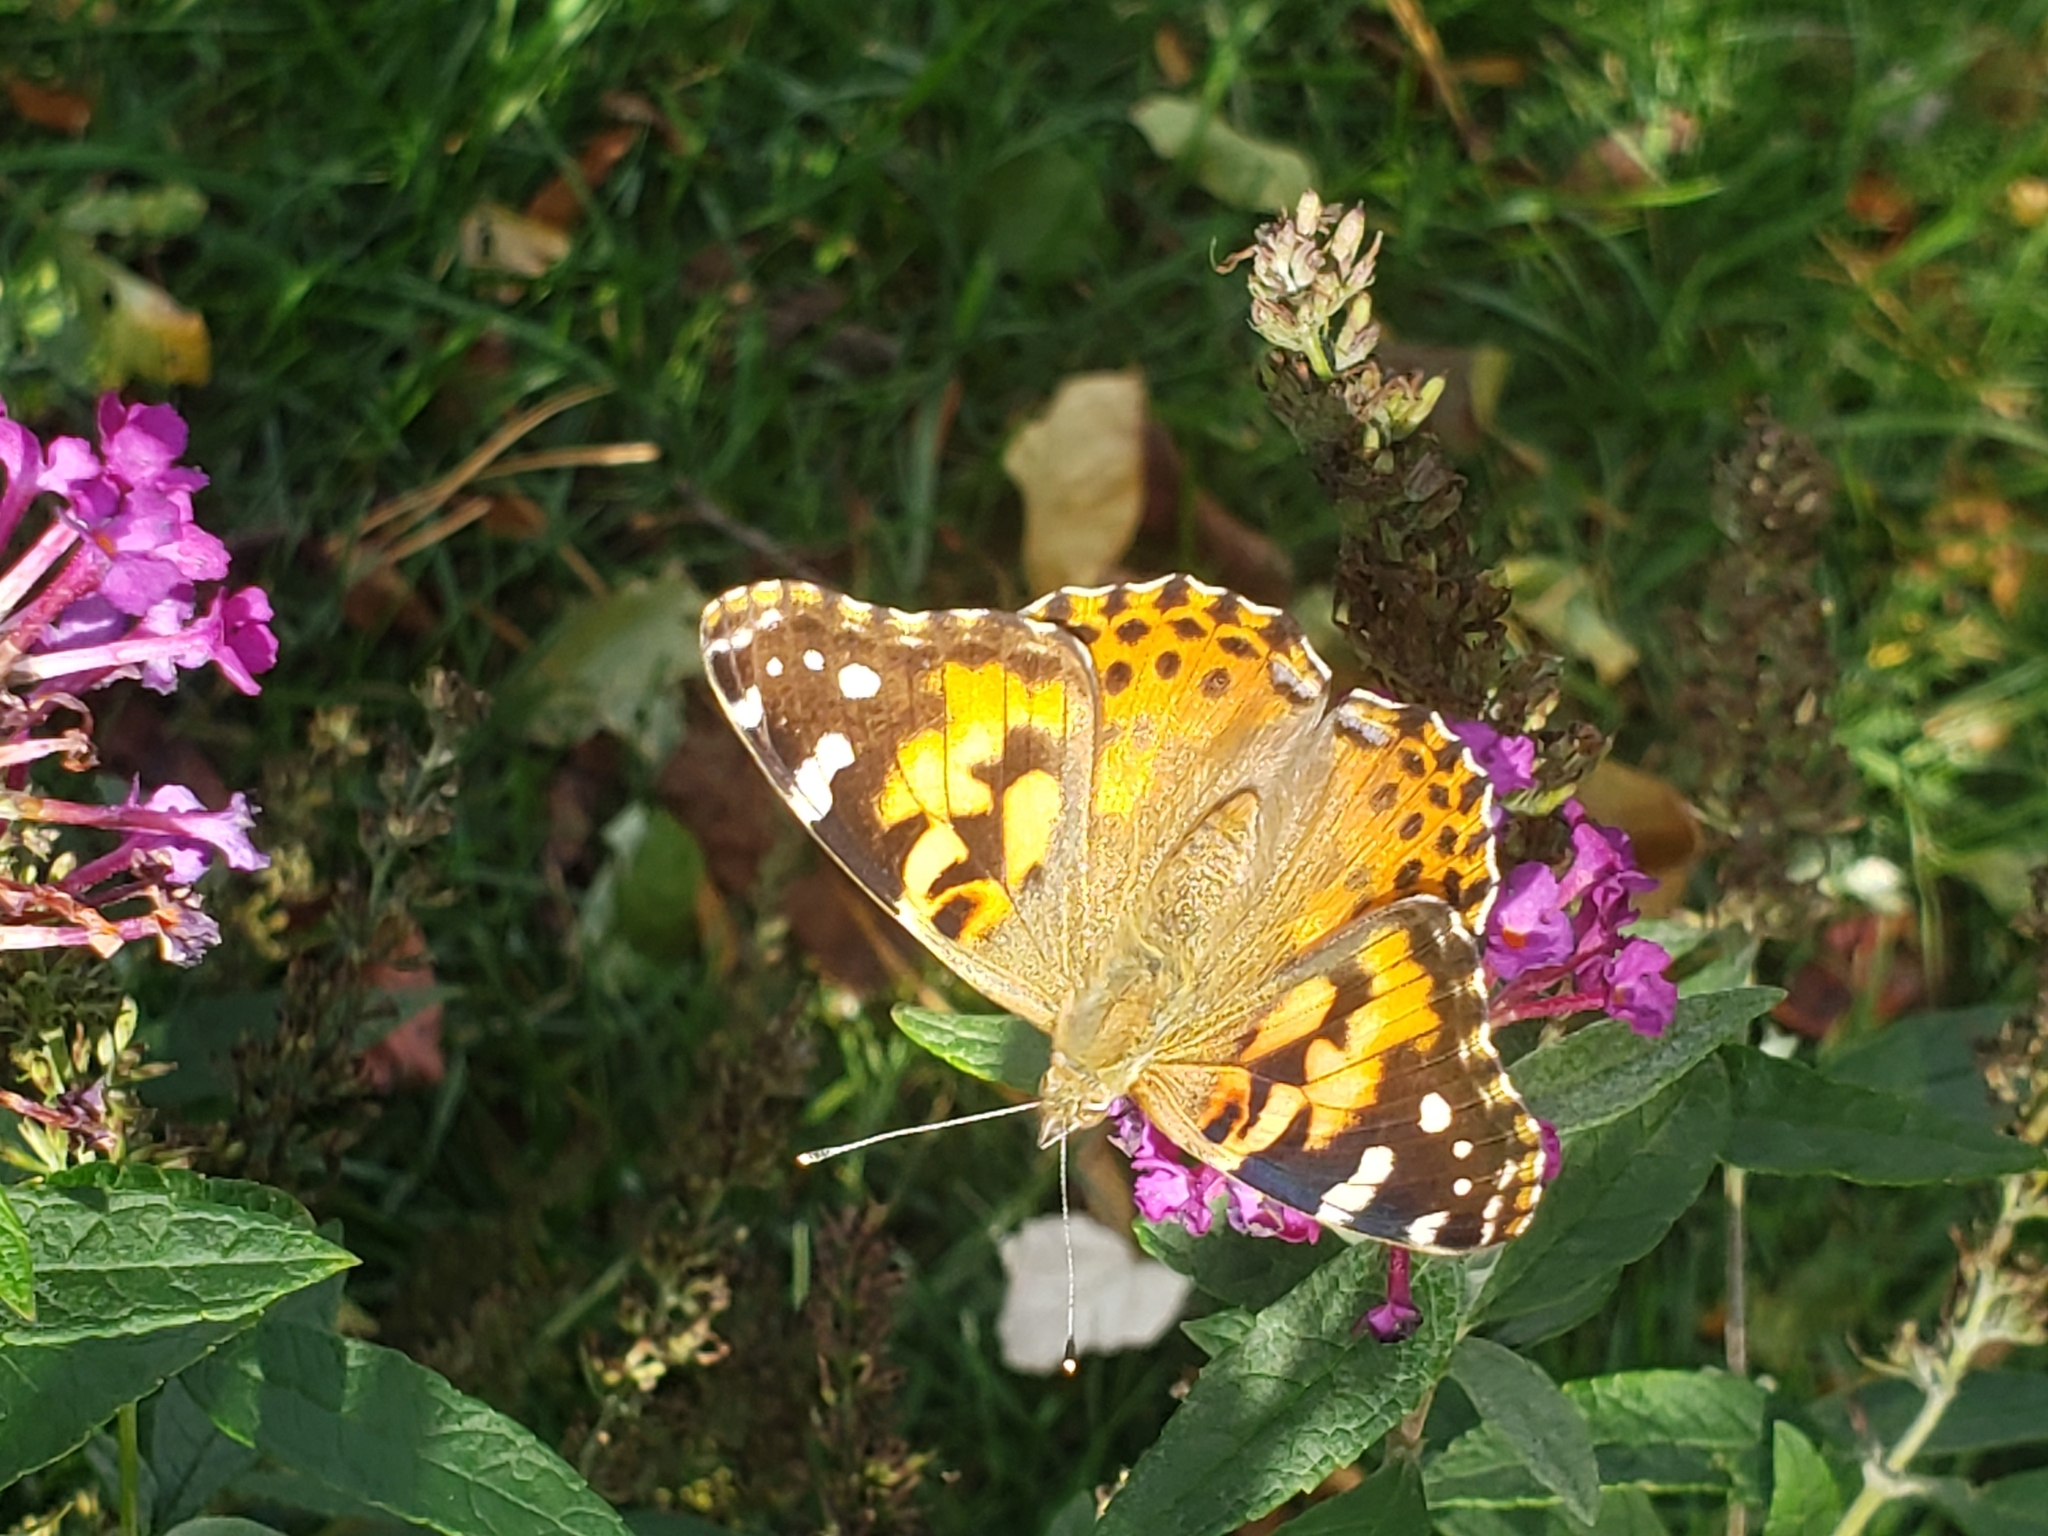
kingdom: Animalia
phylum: Arthropoda
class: Insecta
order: Lepidoptera
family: Nymphalidae
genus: Vanessa
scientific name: Vanessa cardui
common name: Painted lady
